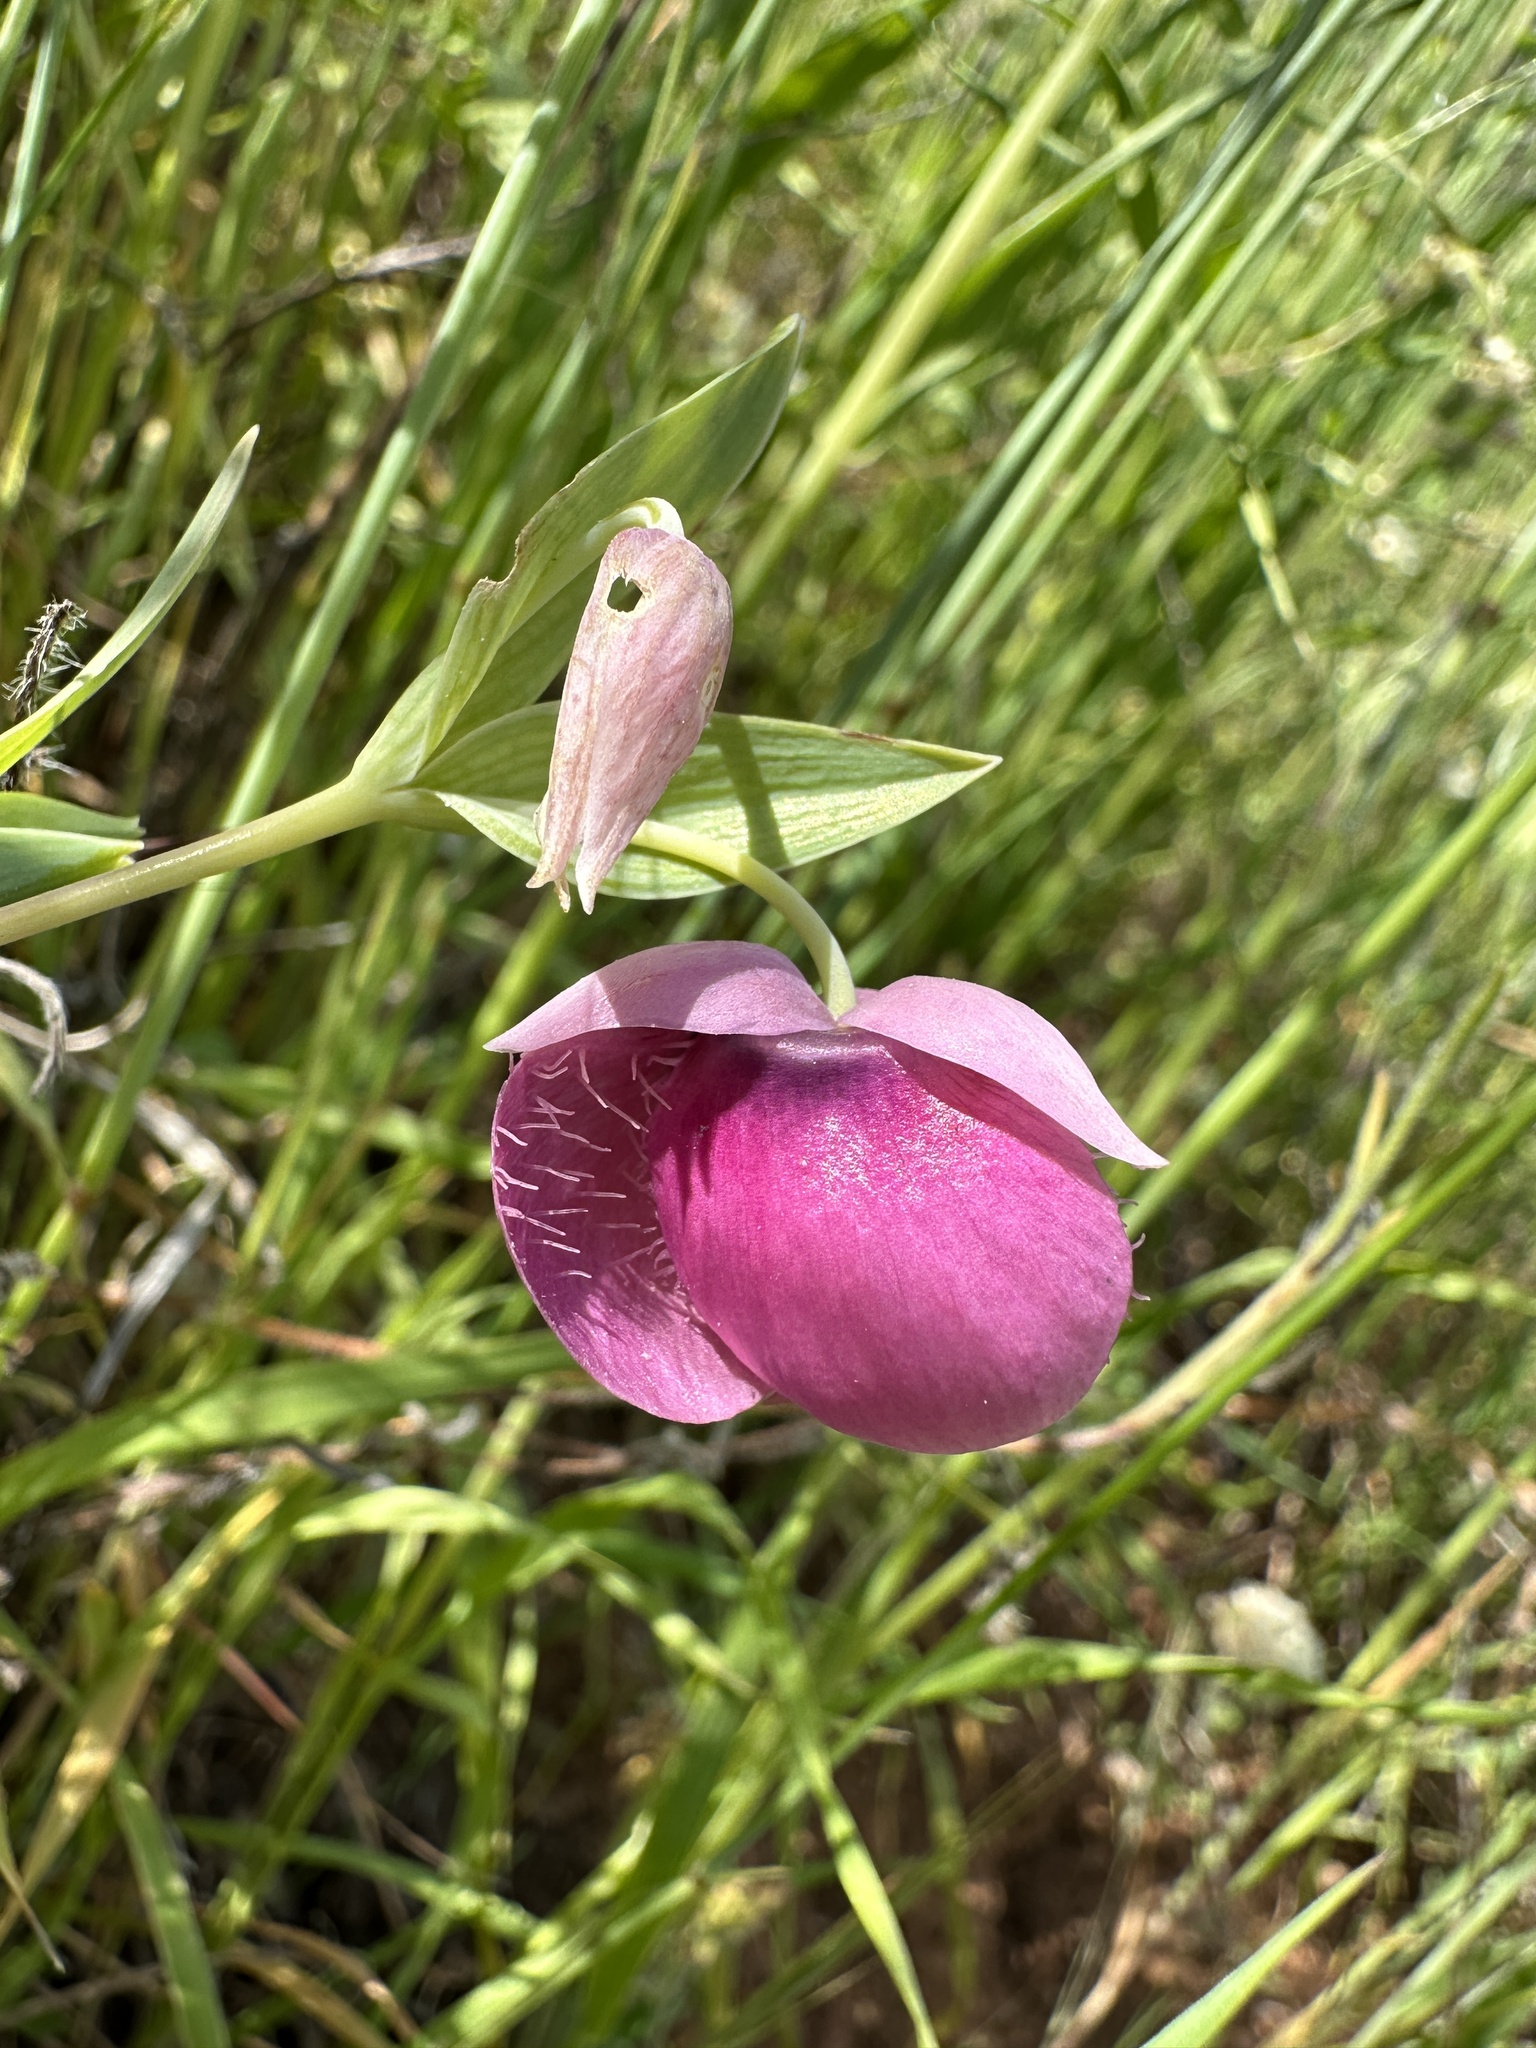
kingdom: Plantae
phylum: Tracheophyta
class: Liliopsida
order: Liliales
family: Liliaceae
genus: Calochortus
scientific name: Calochortus amoenus
